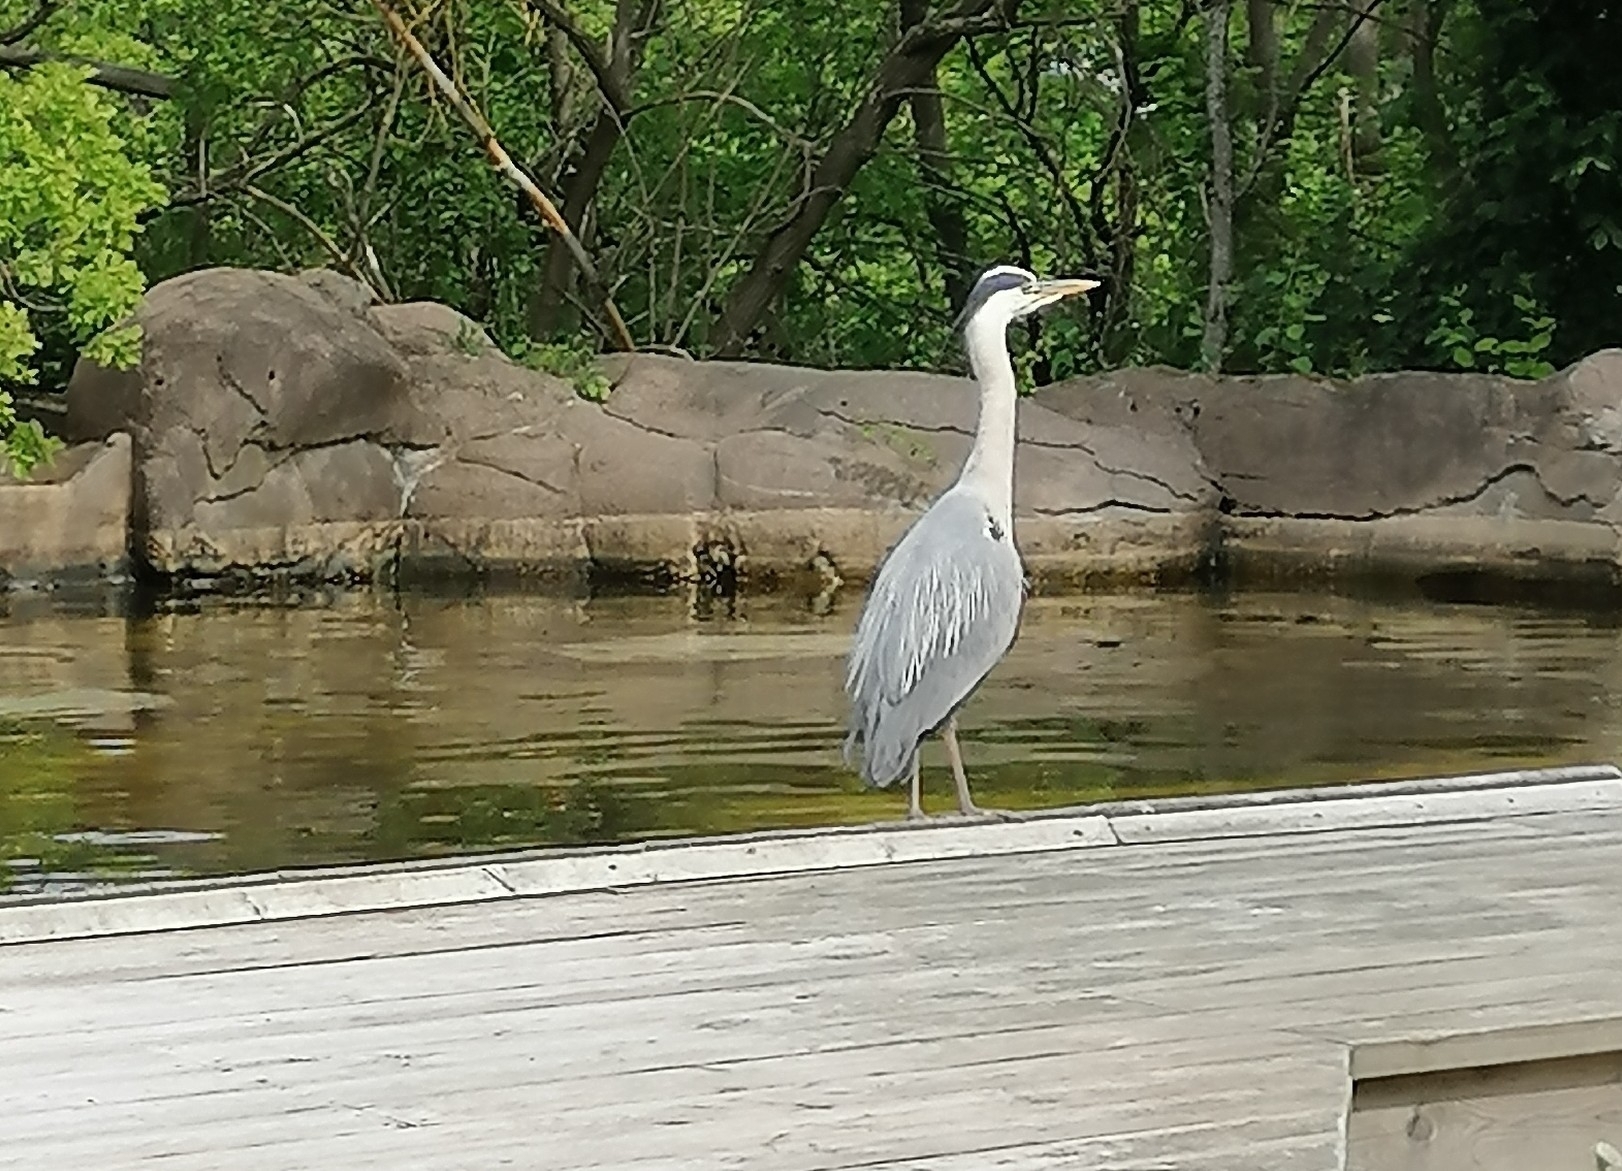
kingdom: Animalia
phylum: Chordata
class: Aves
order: Pelecaniformes
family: Ardeidae
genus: Ardea
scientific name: Ardea cinerea
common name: Grey heron
